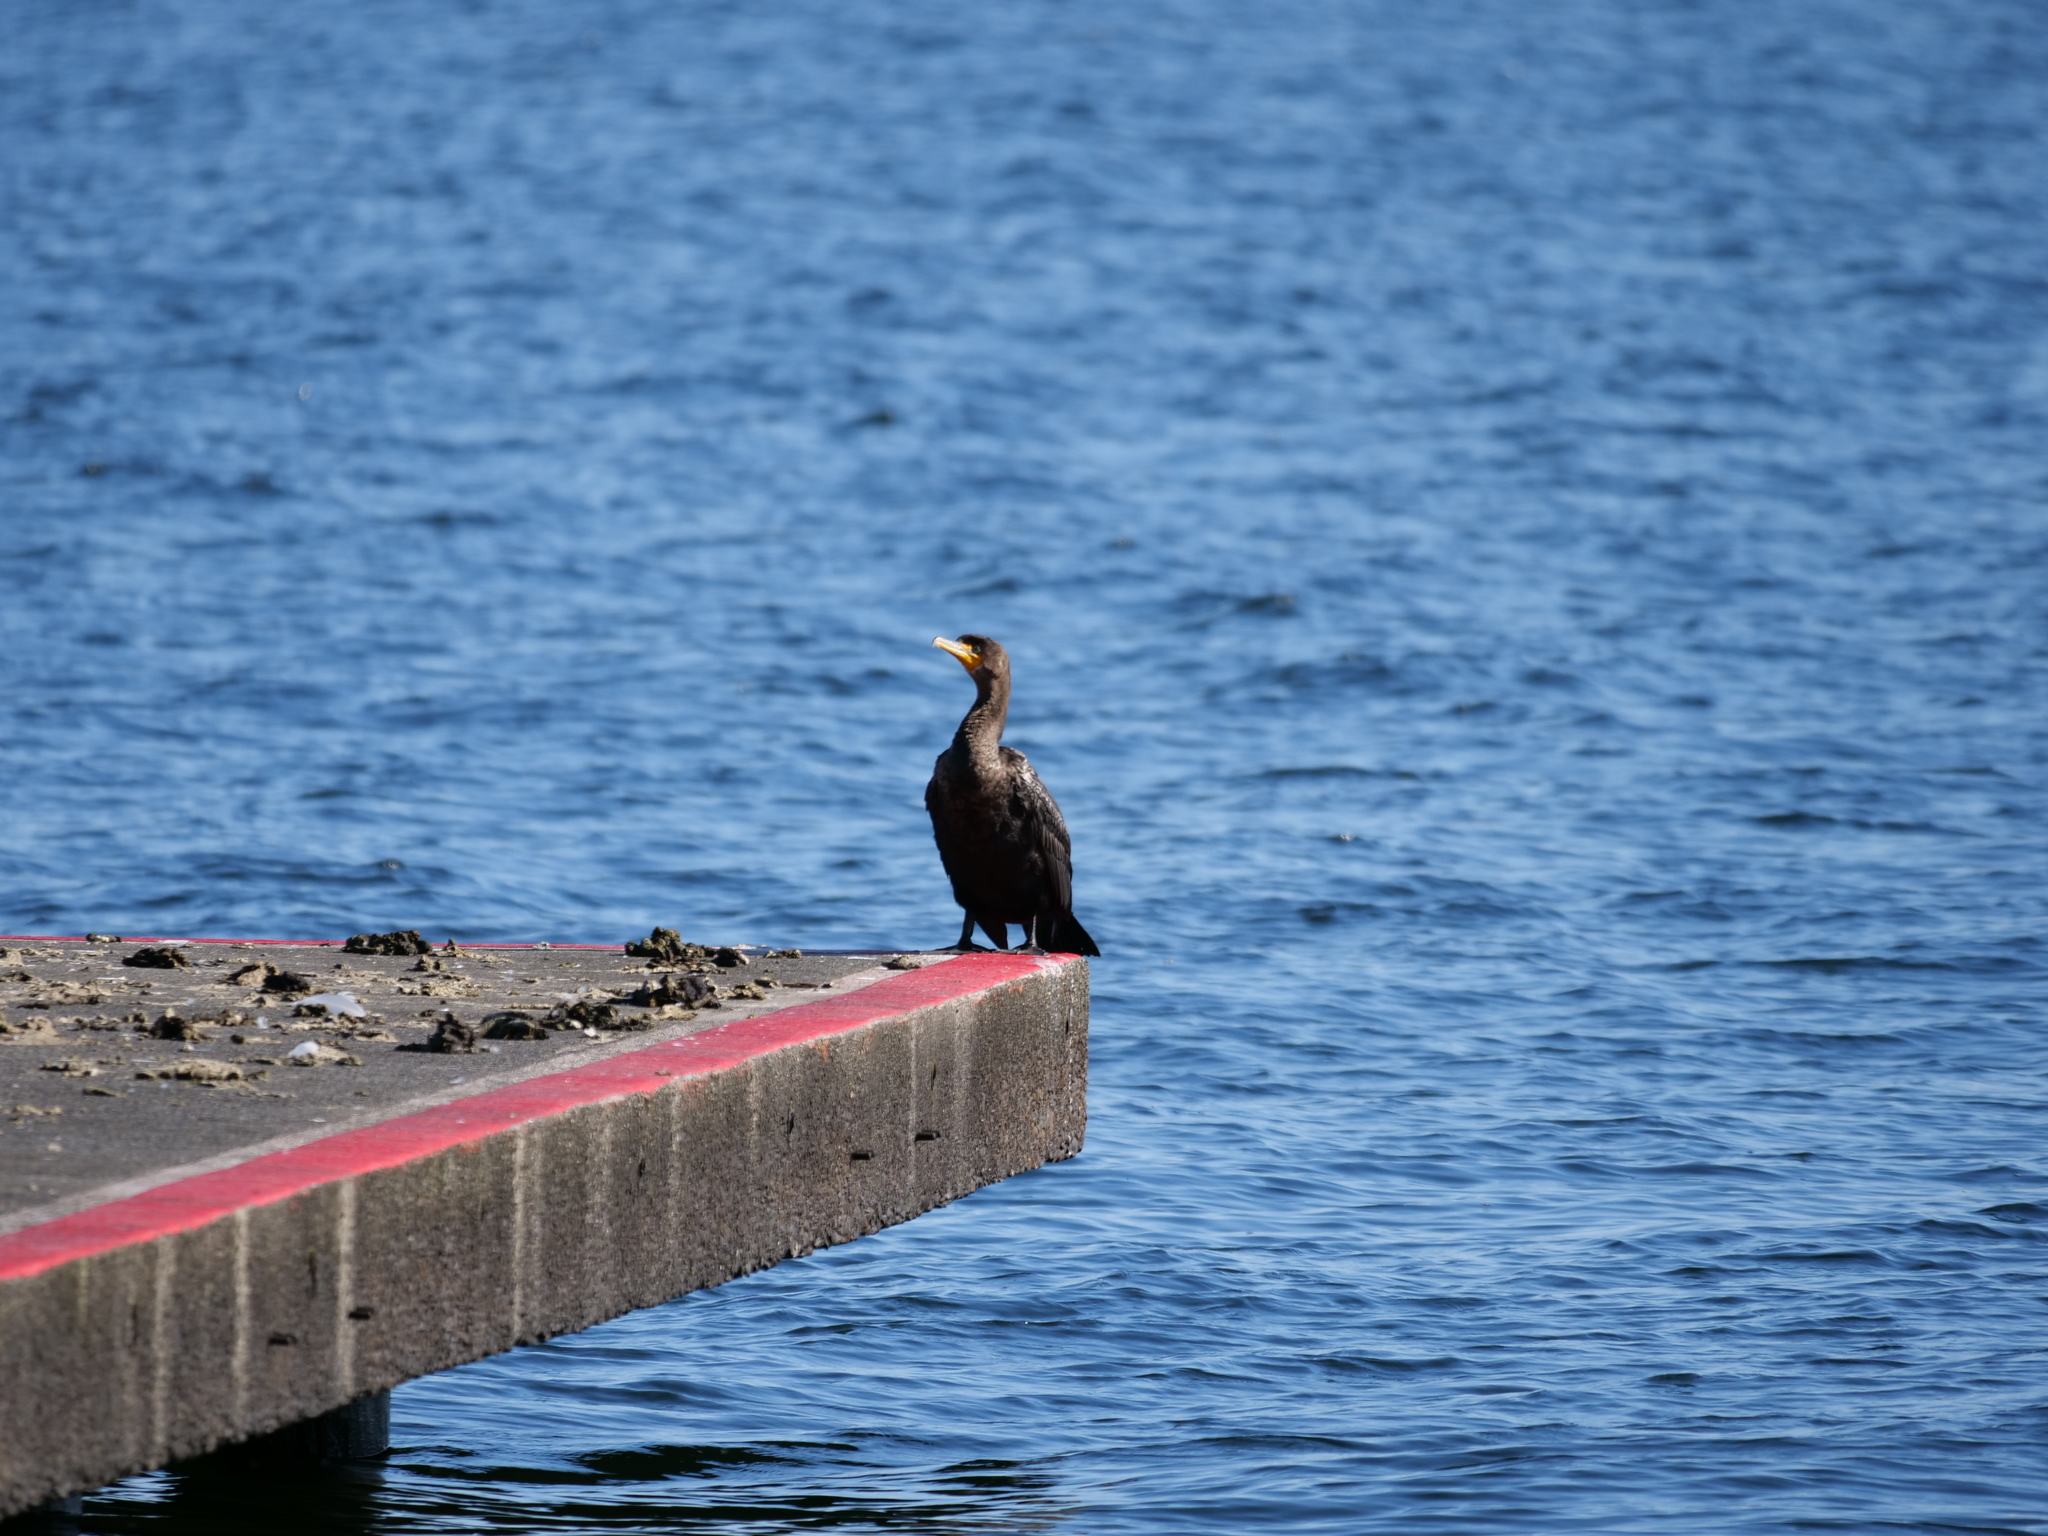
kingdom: Animalia
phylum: Chordata
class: Aves
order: Suliformes
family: Phalacrocoracidae
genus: Phalacrocorax
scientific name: Phalacrocorax auritus
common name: Double-crested cormorant
